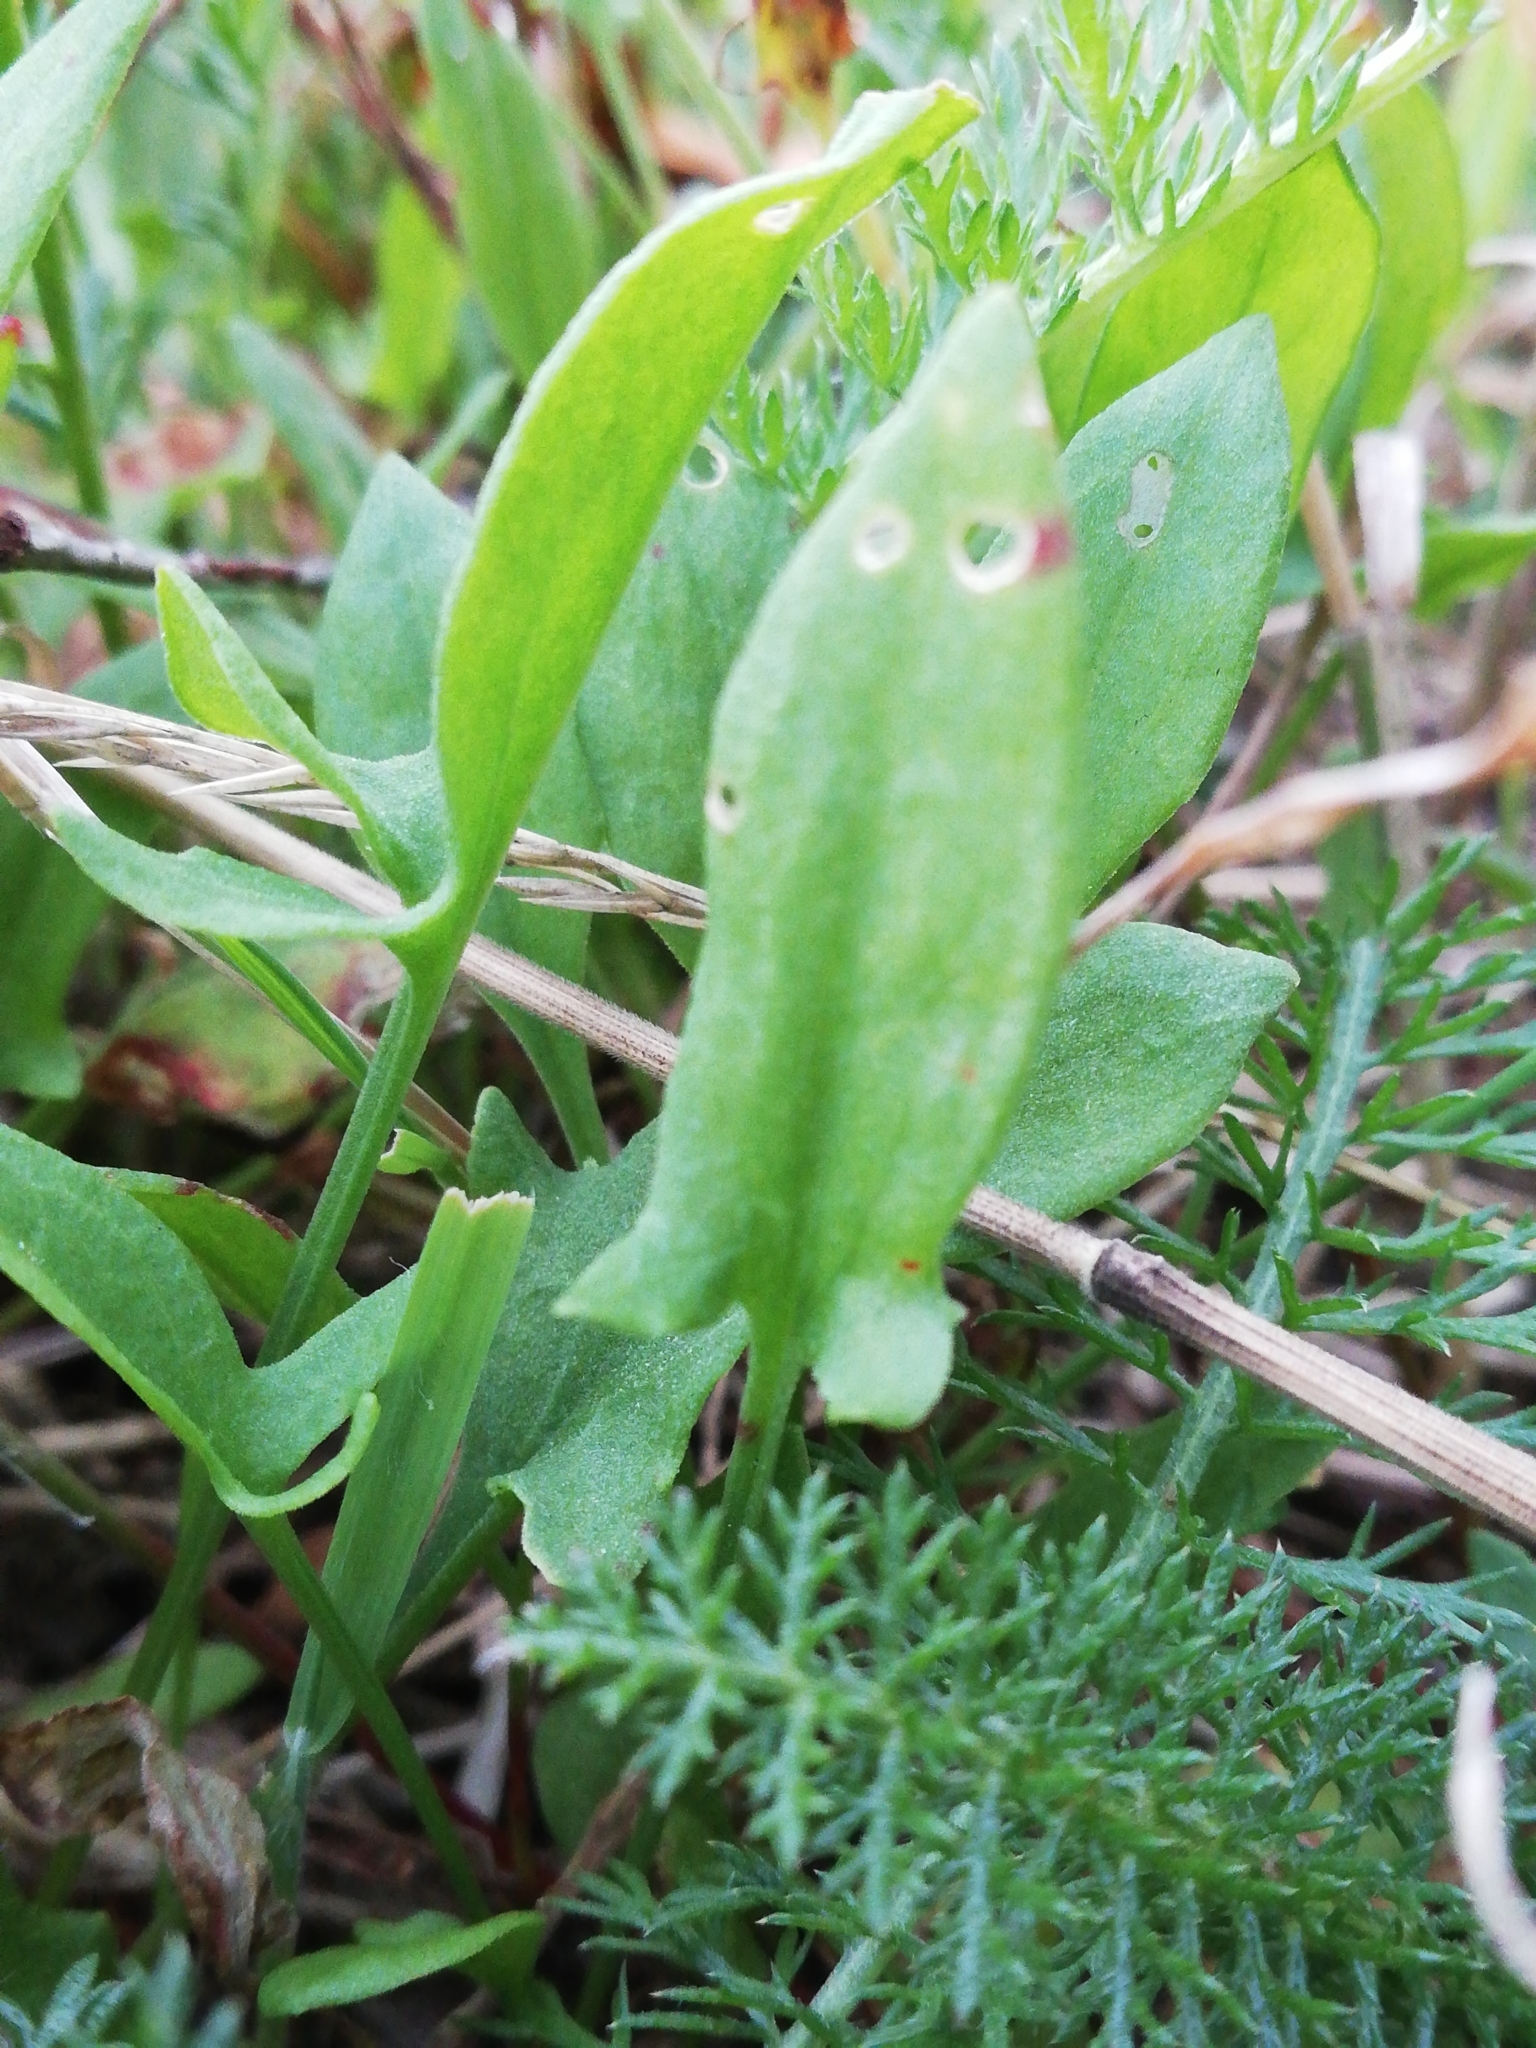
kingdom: Plantae
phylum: Tracheophyta
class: Magnoliopsida
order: Caryophyllales
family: Polygonaceae
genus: Rumex
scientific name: Rumex acetosella
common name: Common sheep sorrel
